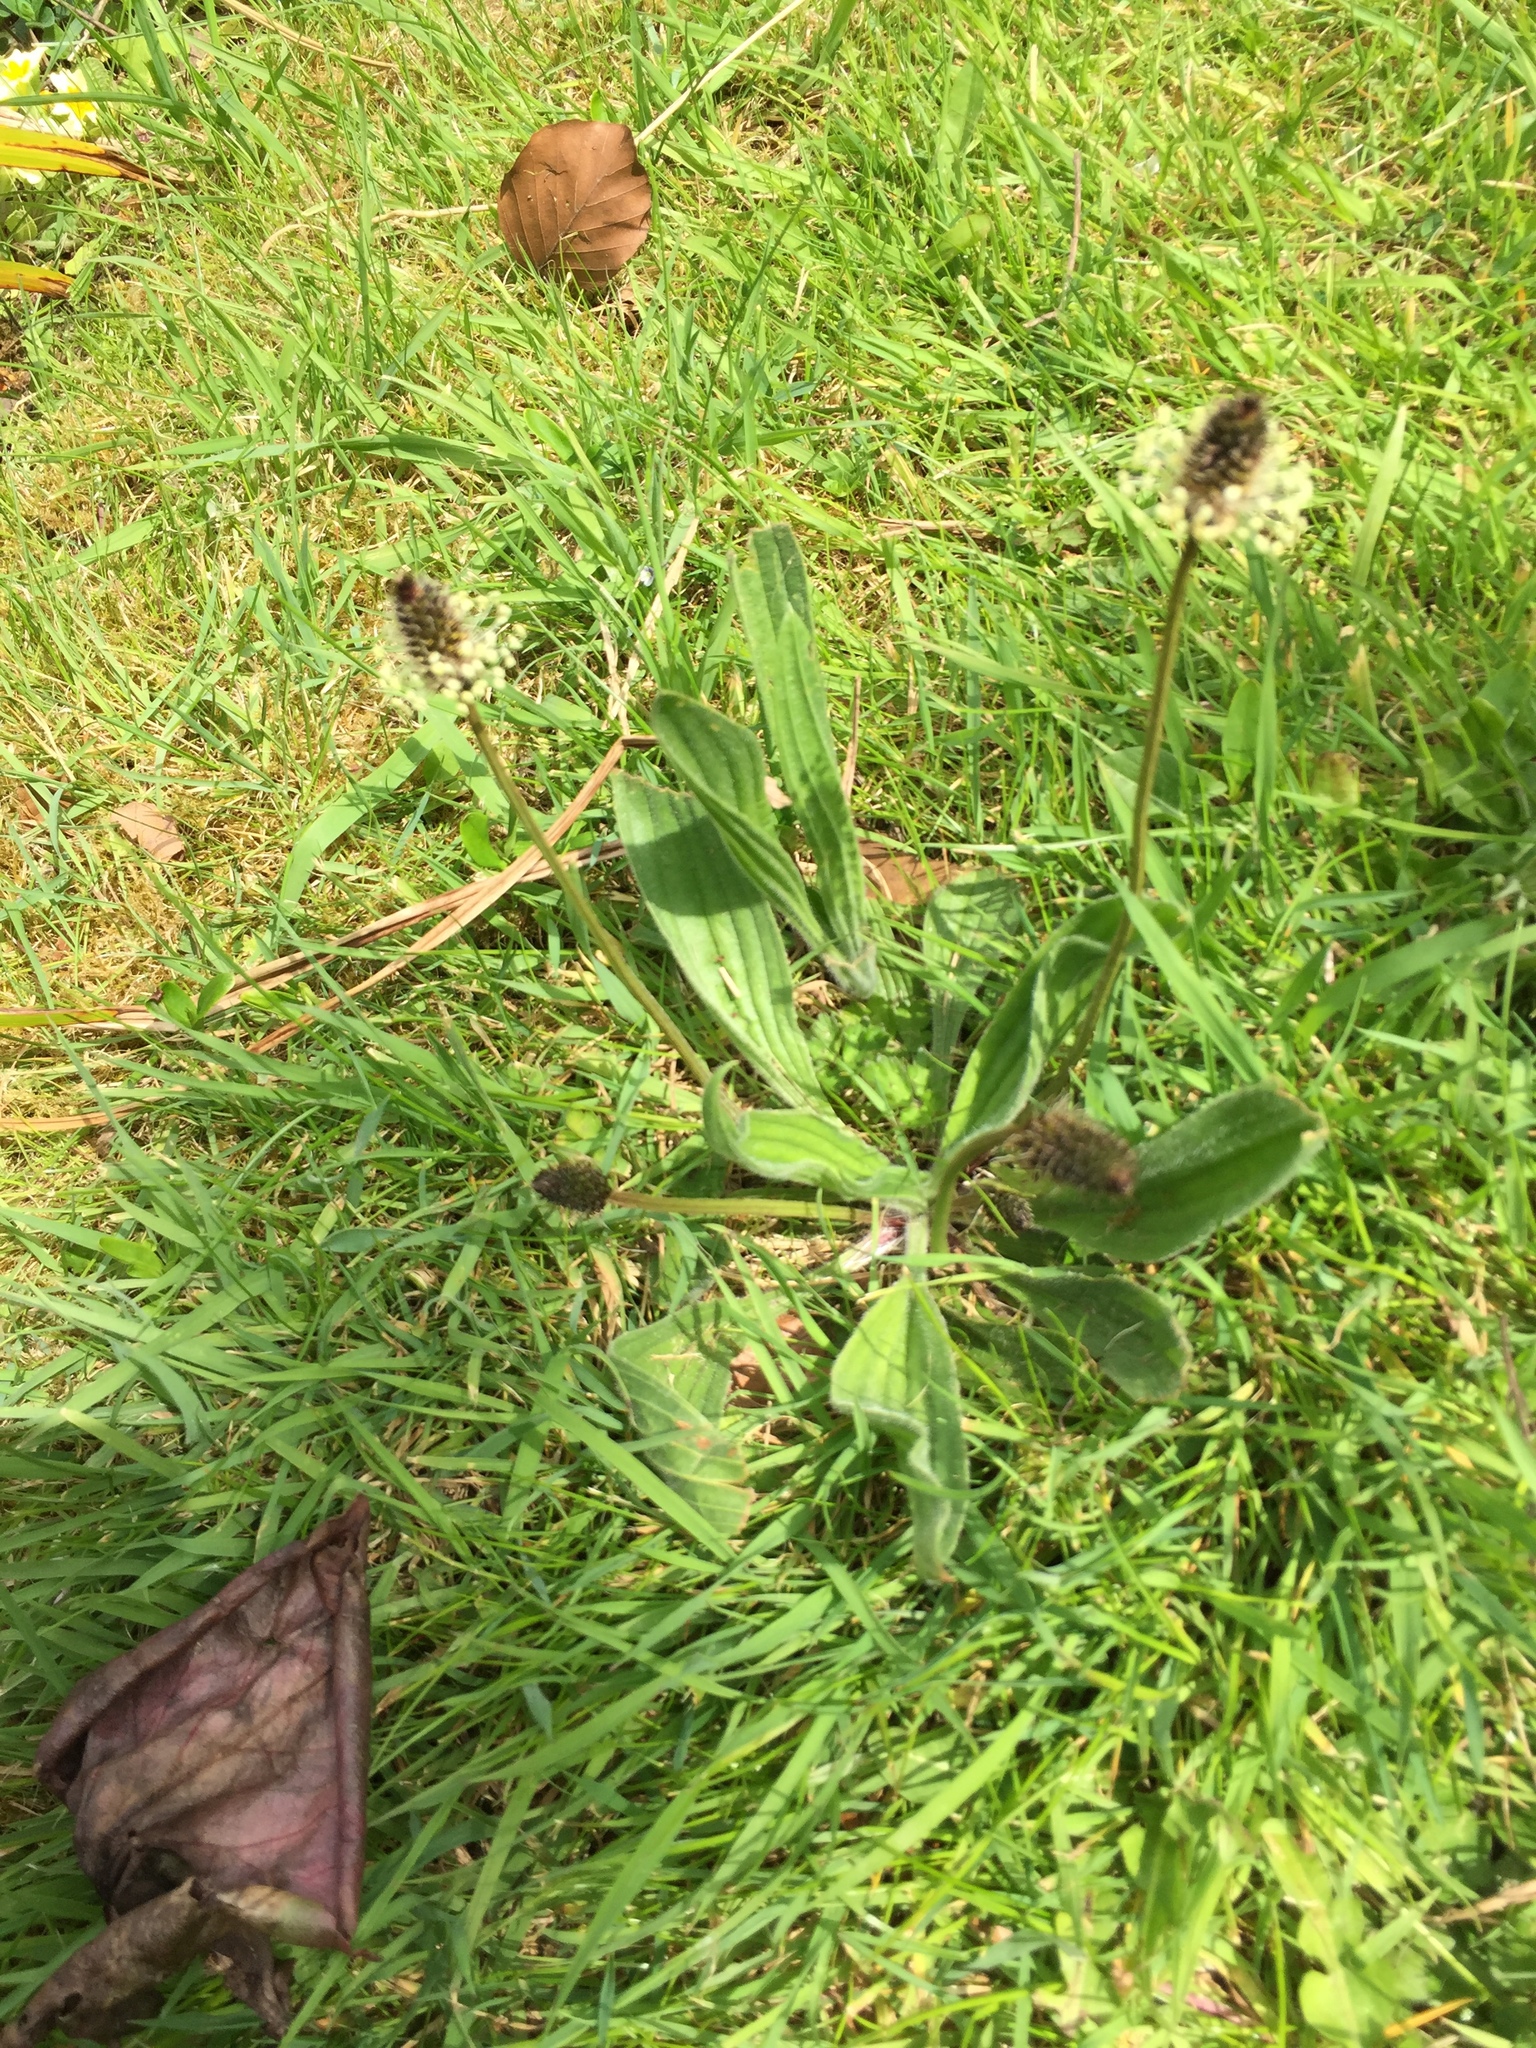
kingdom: Plantae
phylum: Tracheophyta
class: Magnoliopsida
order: Lamiales
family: Plantaginaceae
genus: Plantago
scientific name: Plantago lanceolata
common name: Ribwort plantain
